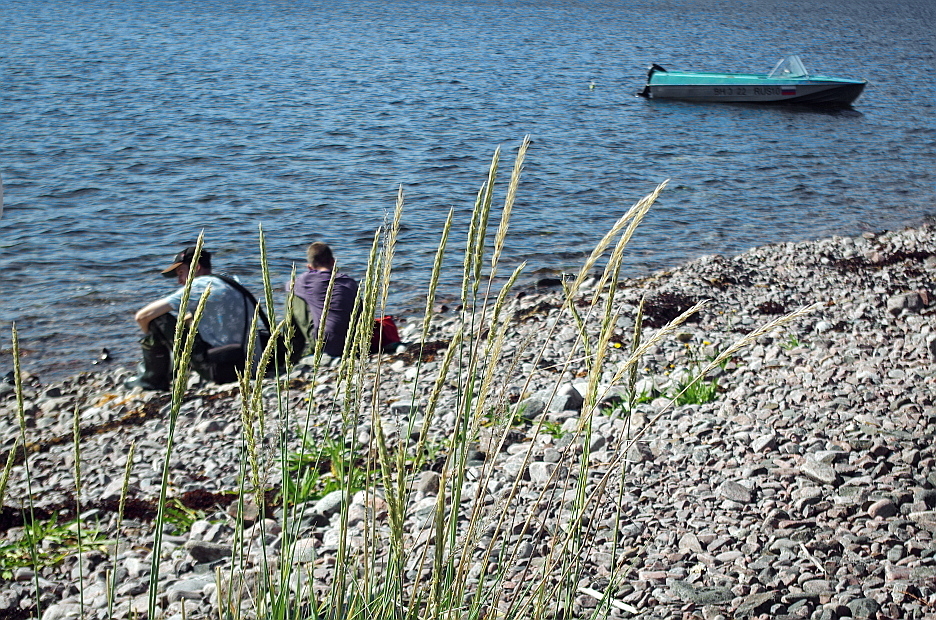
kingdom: Plantae
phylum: Tracheophyta
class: Liliopsida
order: Poales
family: Poaceae
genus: Leymus
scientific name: Leymus arenarius
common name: Lyme-grass
